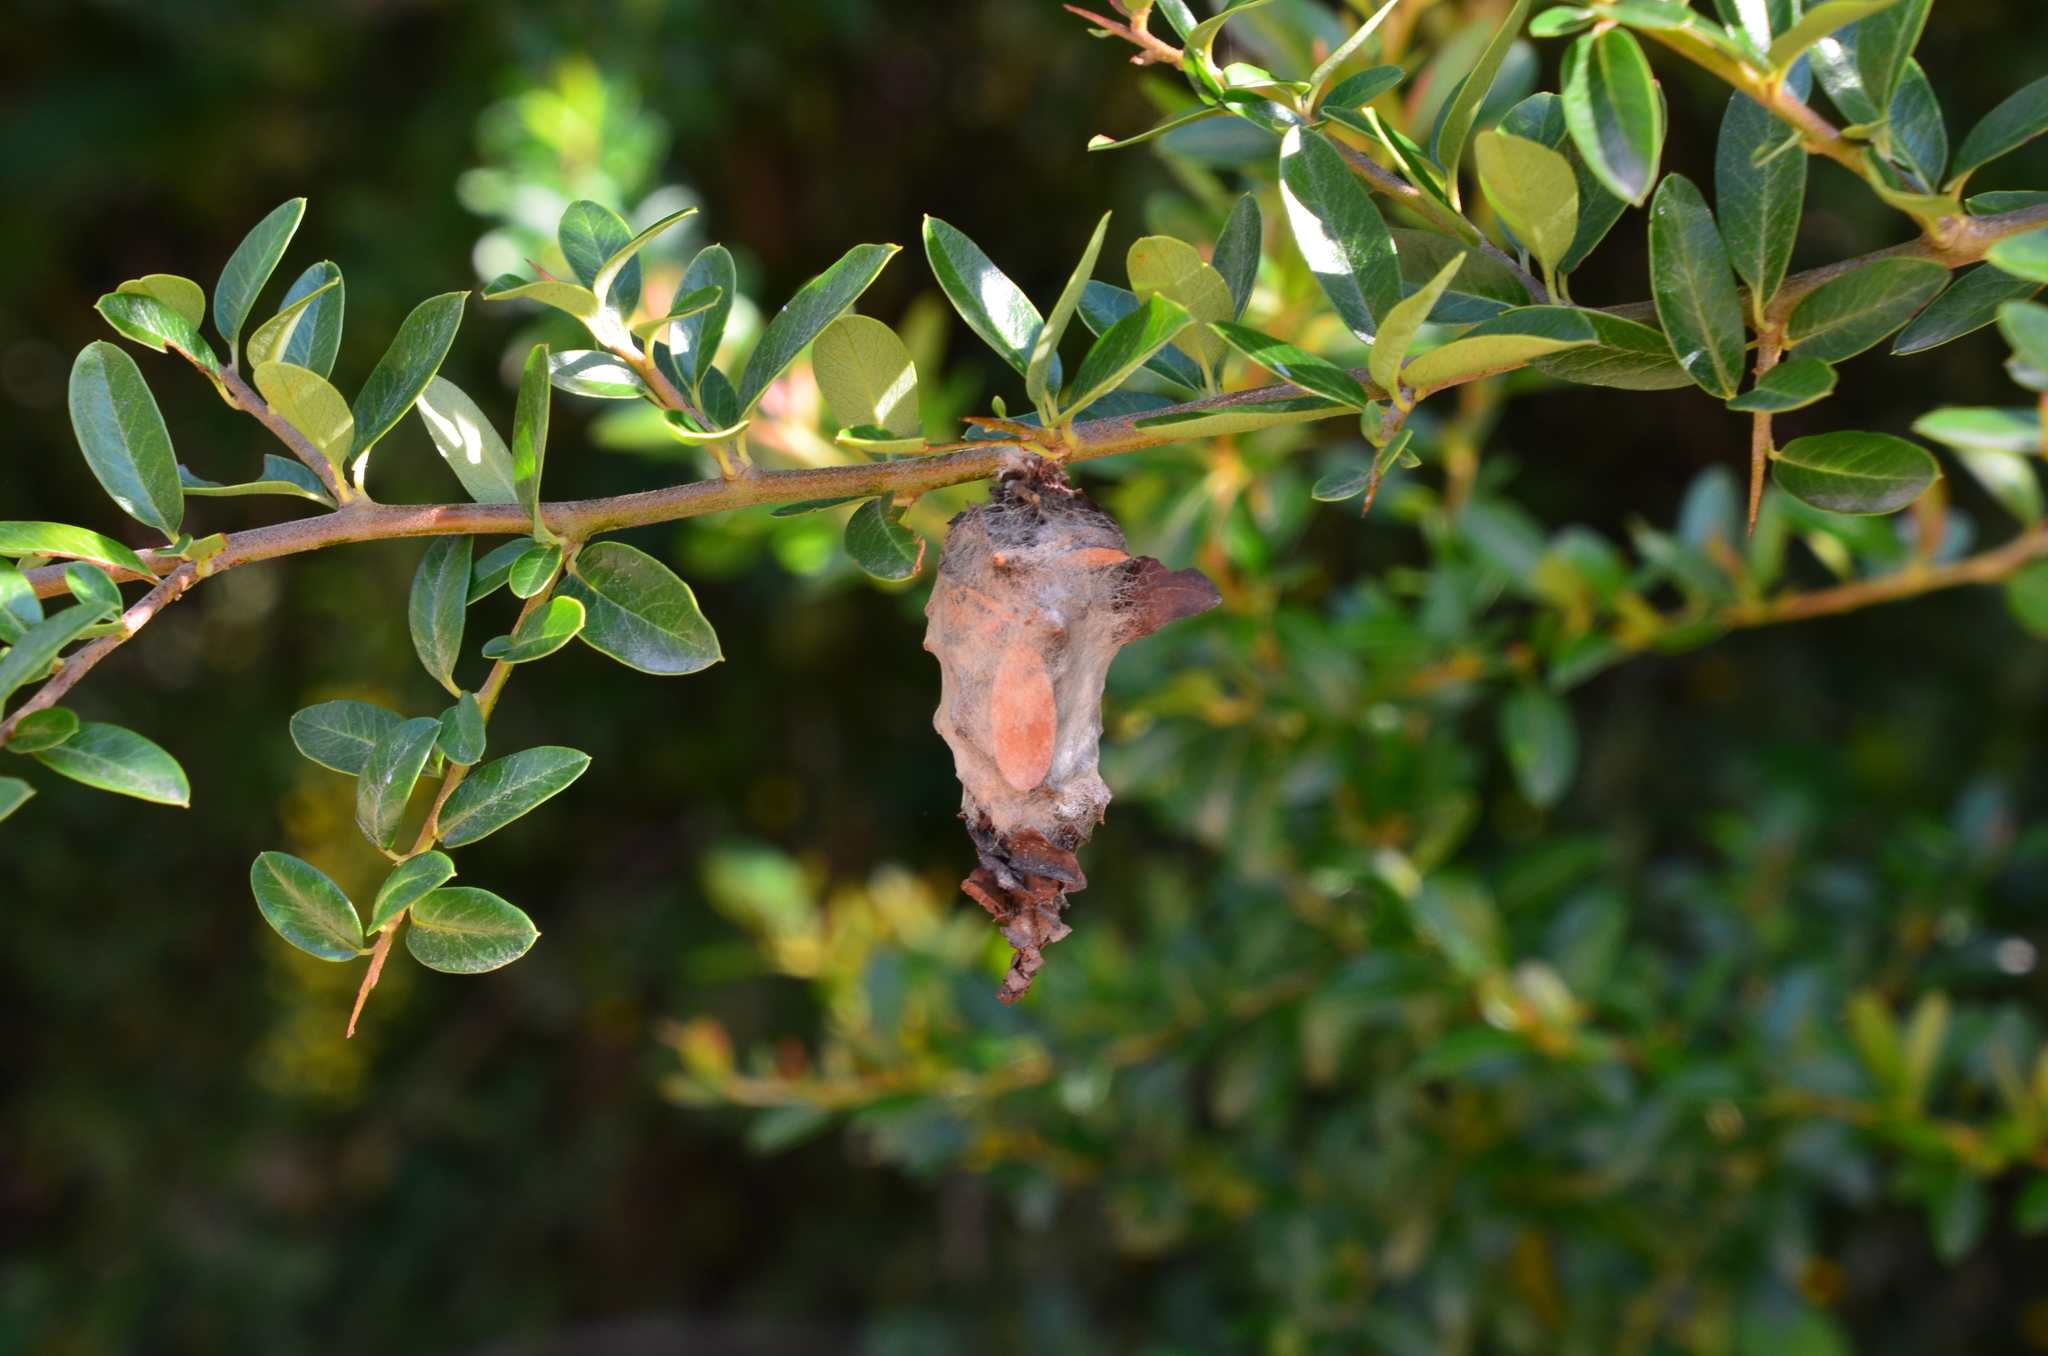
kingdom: Animalia
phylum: Arthropoda
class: Insecta
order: Lepidoptera
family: Psychidae
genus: Oiketicus
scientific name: Oiketicus
